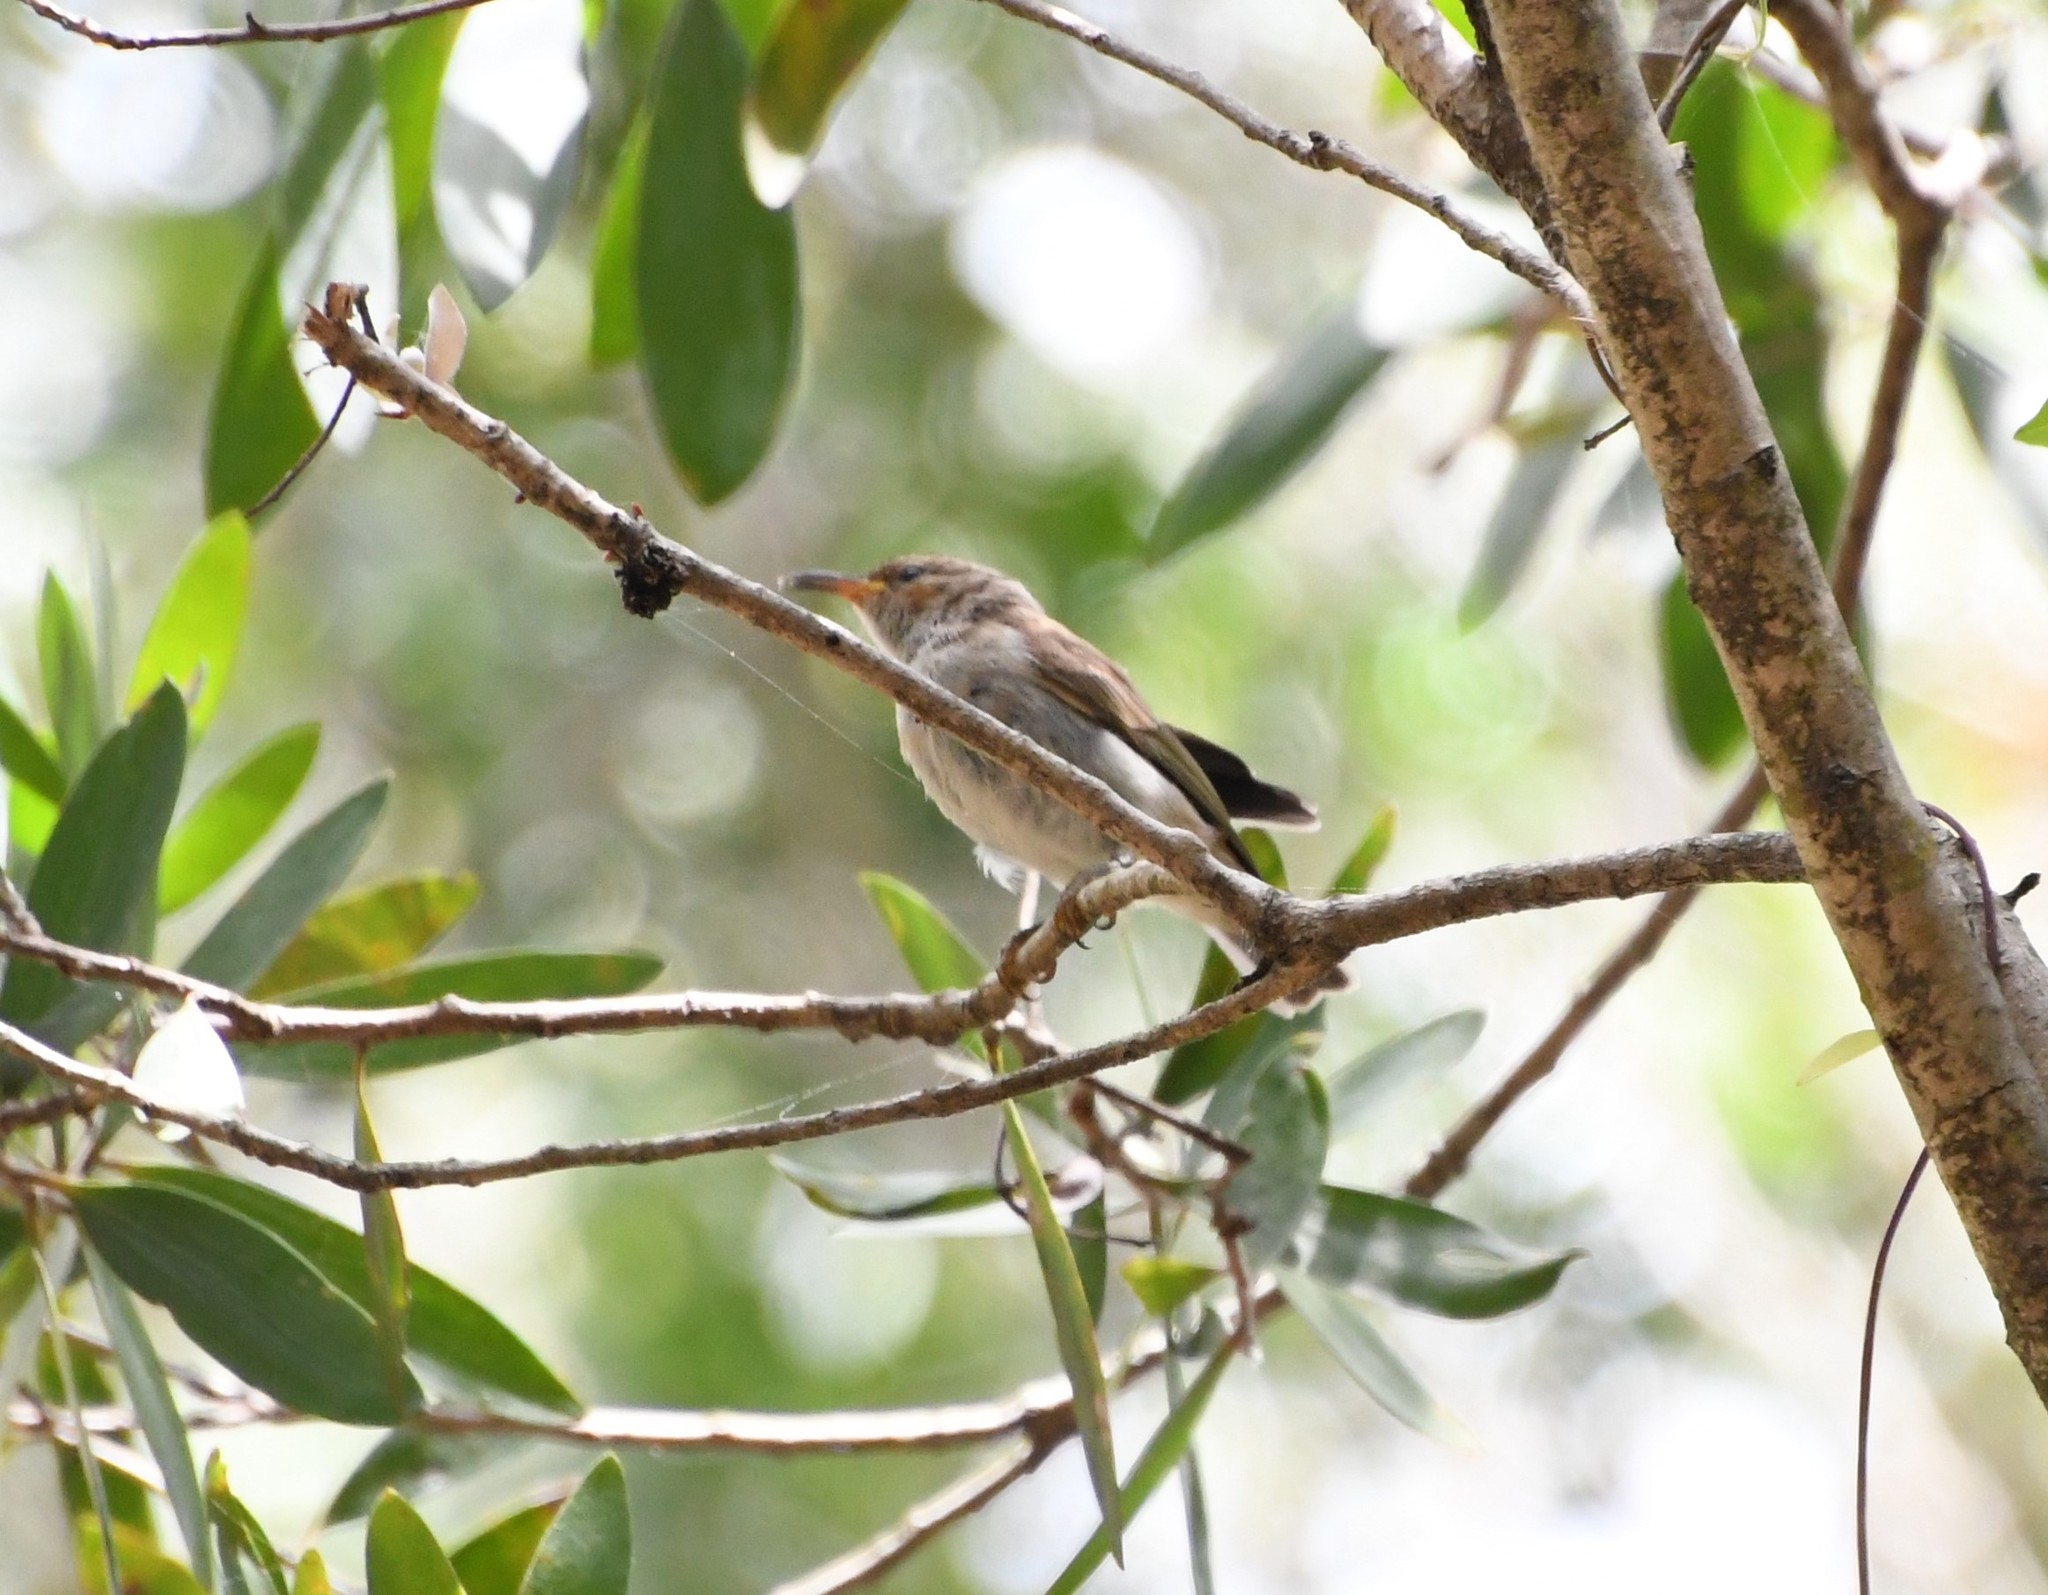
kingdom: Animalia
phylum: Chordata
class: Aves
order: Passeriformes
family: Meliphagidae
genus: Myzomela
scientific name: Myzomela sanguinolenta
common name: Scarlet myzomela
